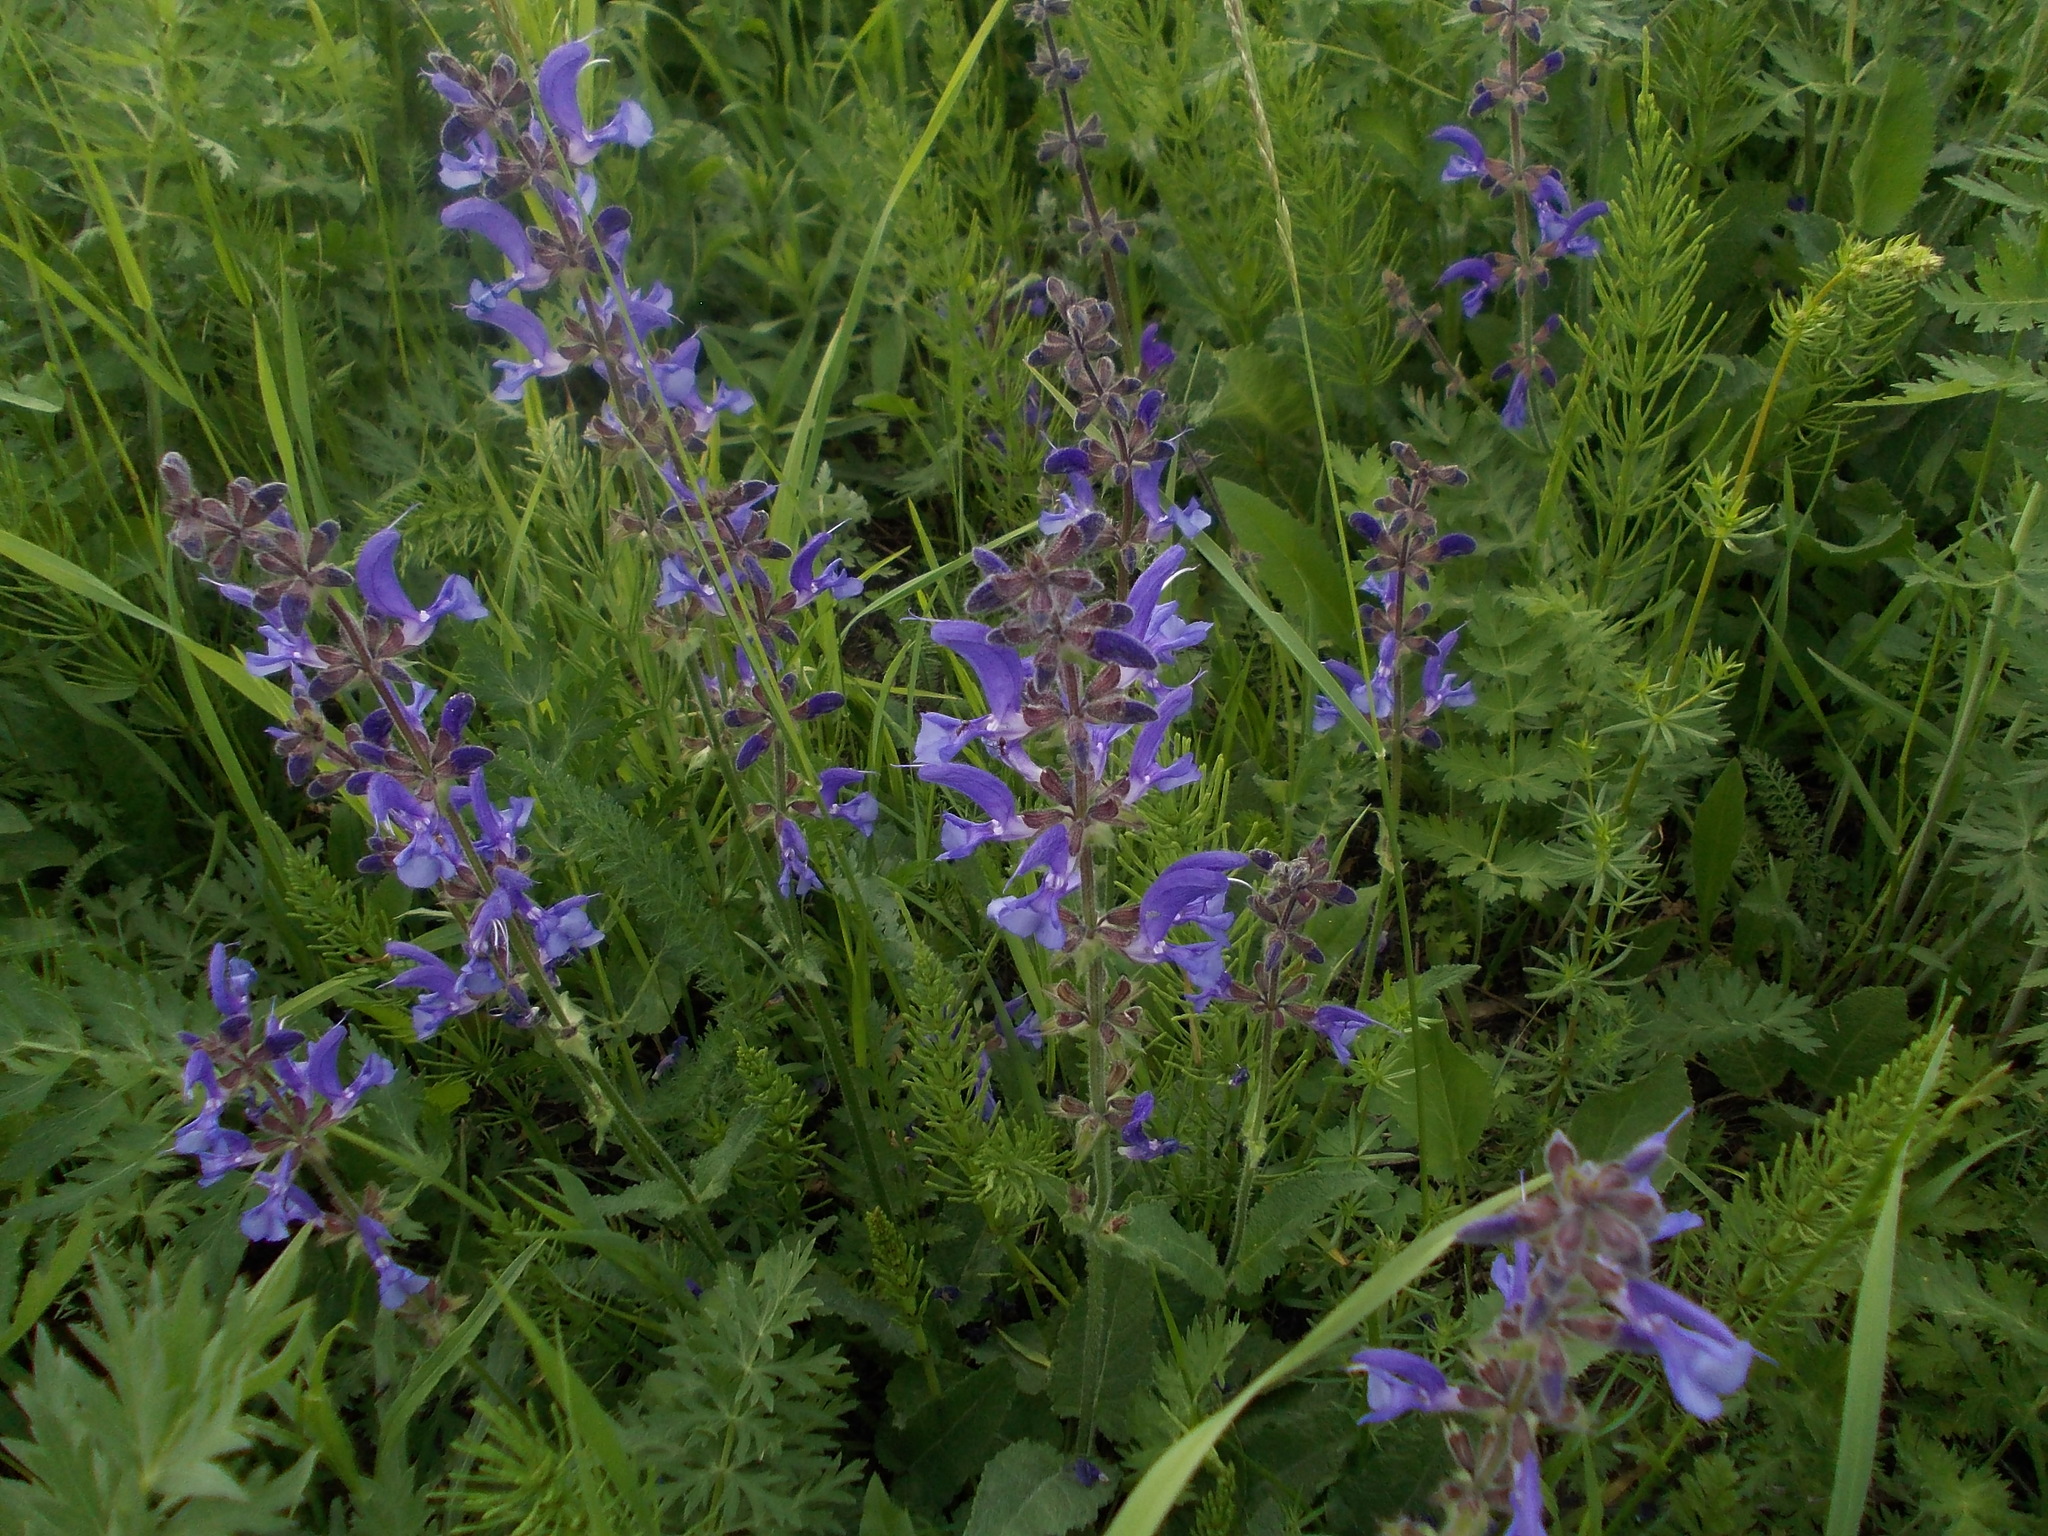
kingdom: Plantae
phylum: Tracheophyta
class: Magnoliopsida
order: Lamiales
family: Lamiaceae
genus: Salvia
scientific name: Salvia pratensis
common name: Meadow sage
